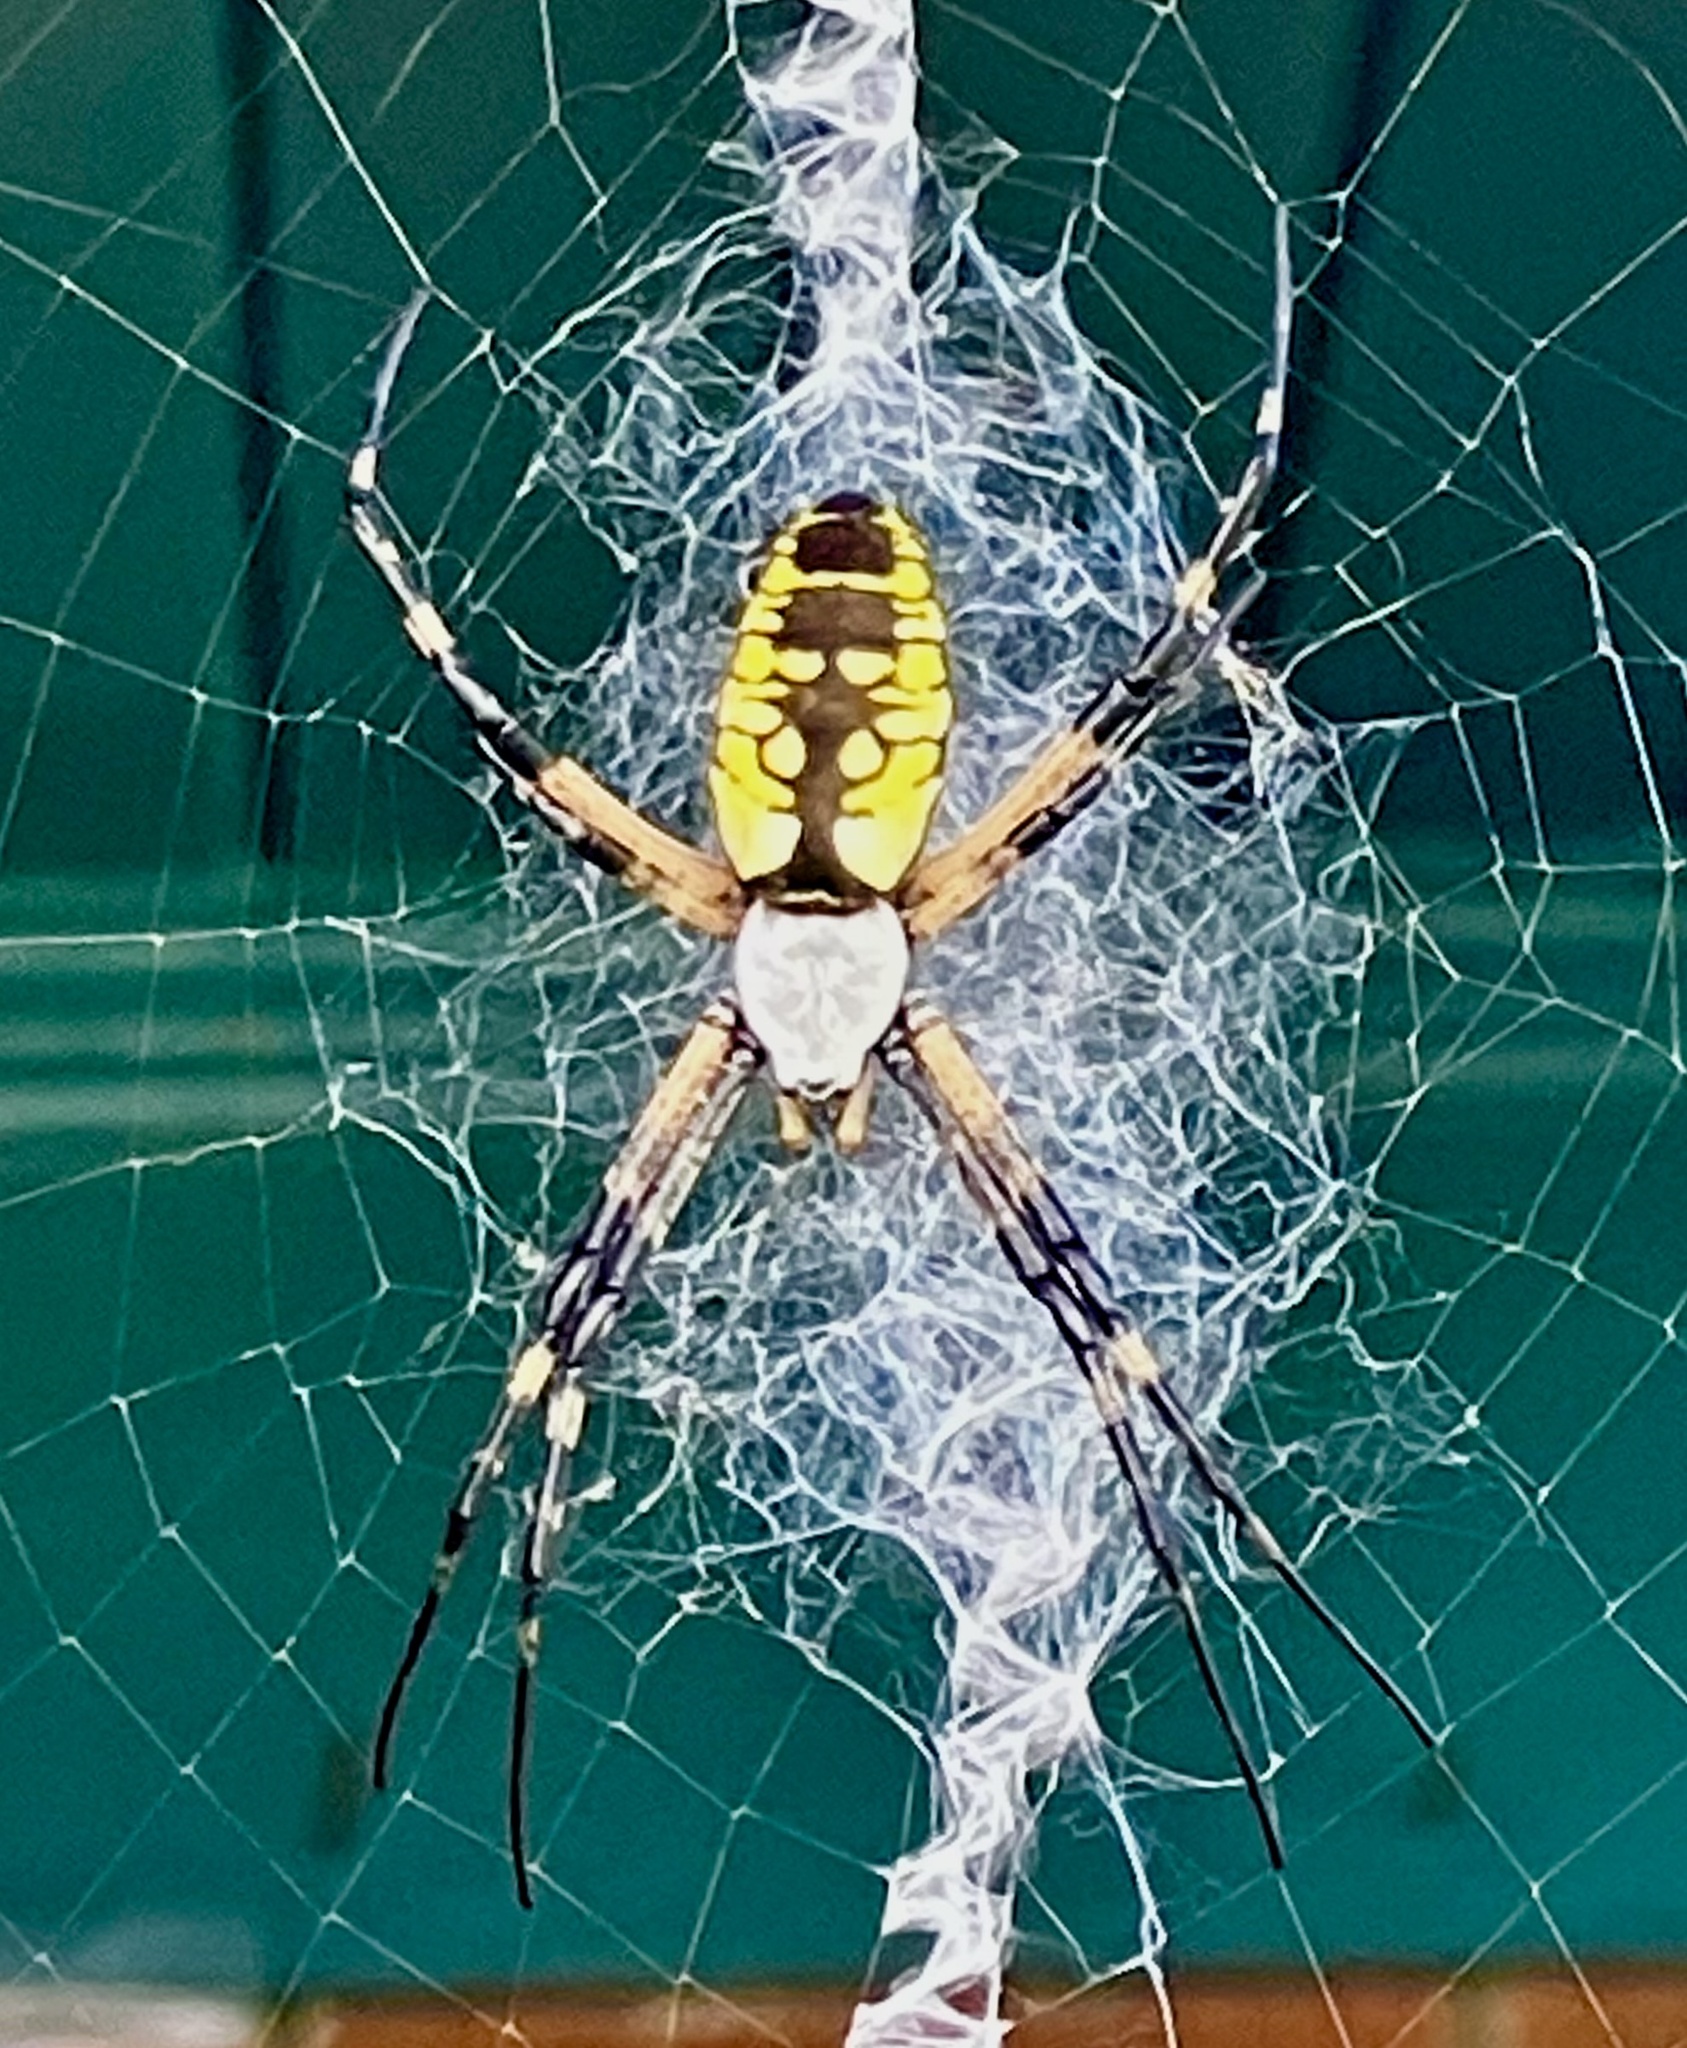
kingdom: Animalia
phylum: Arthropoda
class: Arachnida
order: Araneae
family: Araneidae
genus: Argiope
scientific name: Argiope aurantia
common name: Orb weavers
